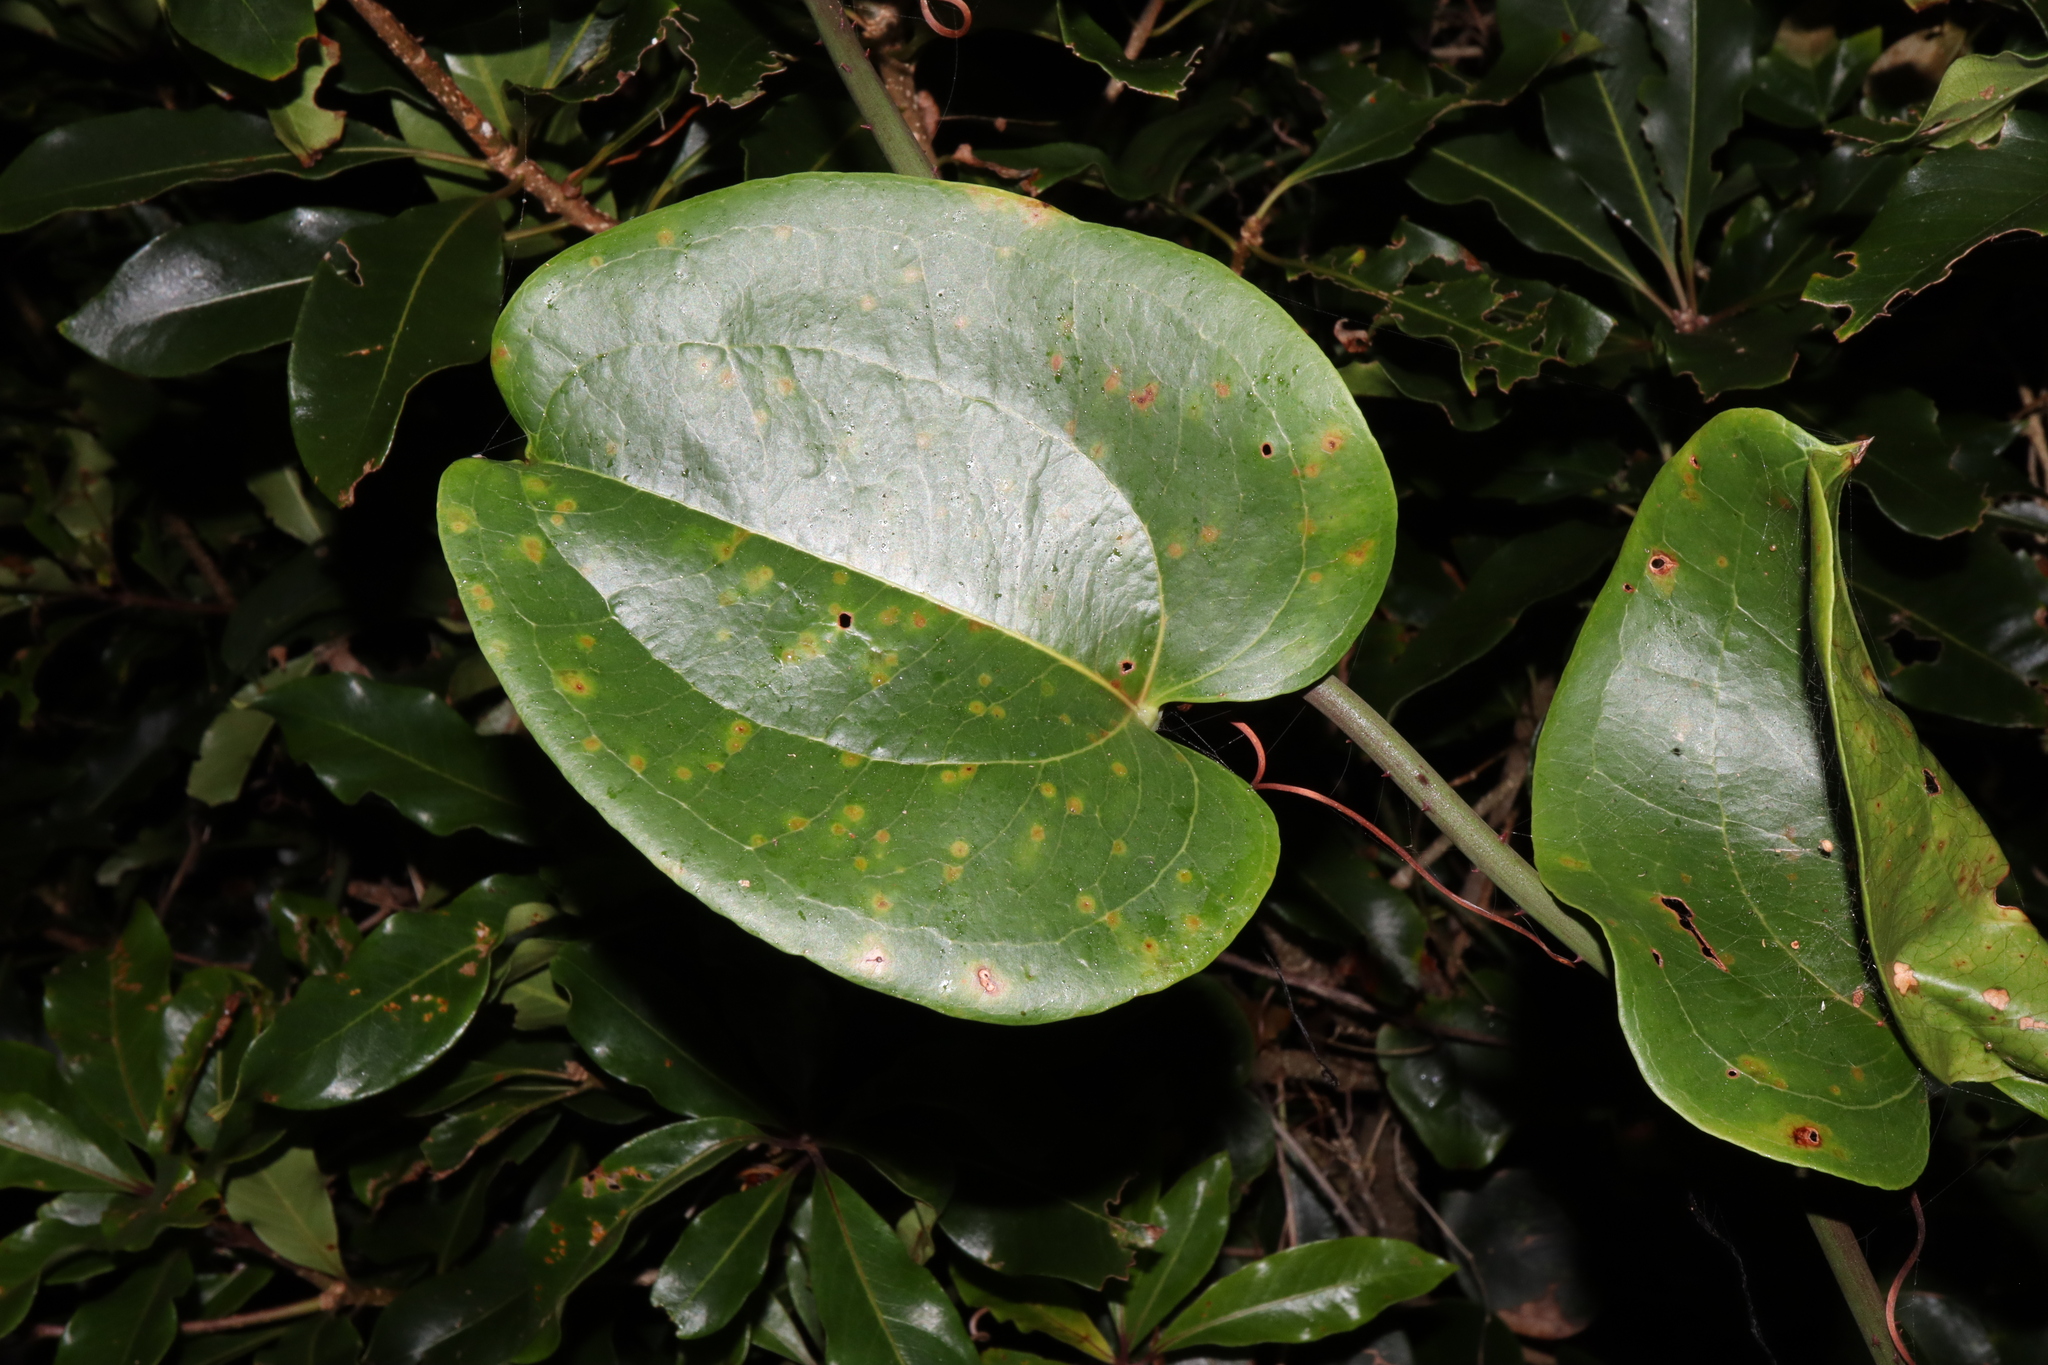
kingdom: Plantae
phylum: Tracheophyta
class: Liliopsida
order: Liliales
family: Smilacaceae
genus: Smilax
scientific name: Smilax australis
